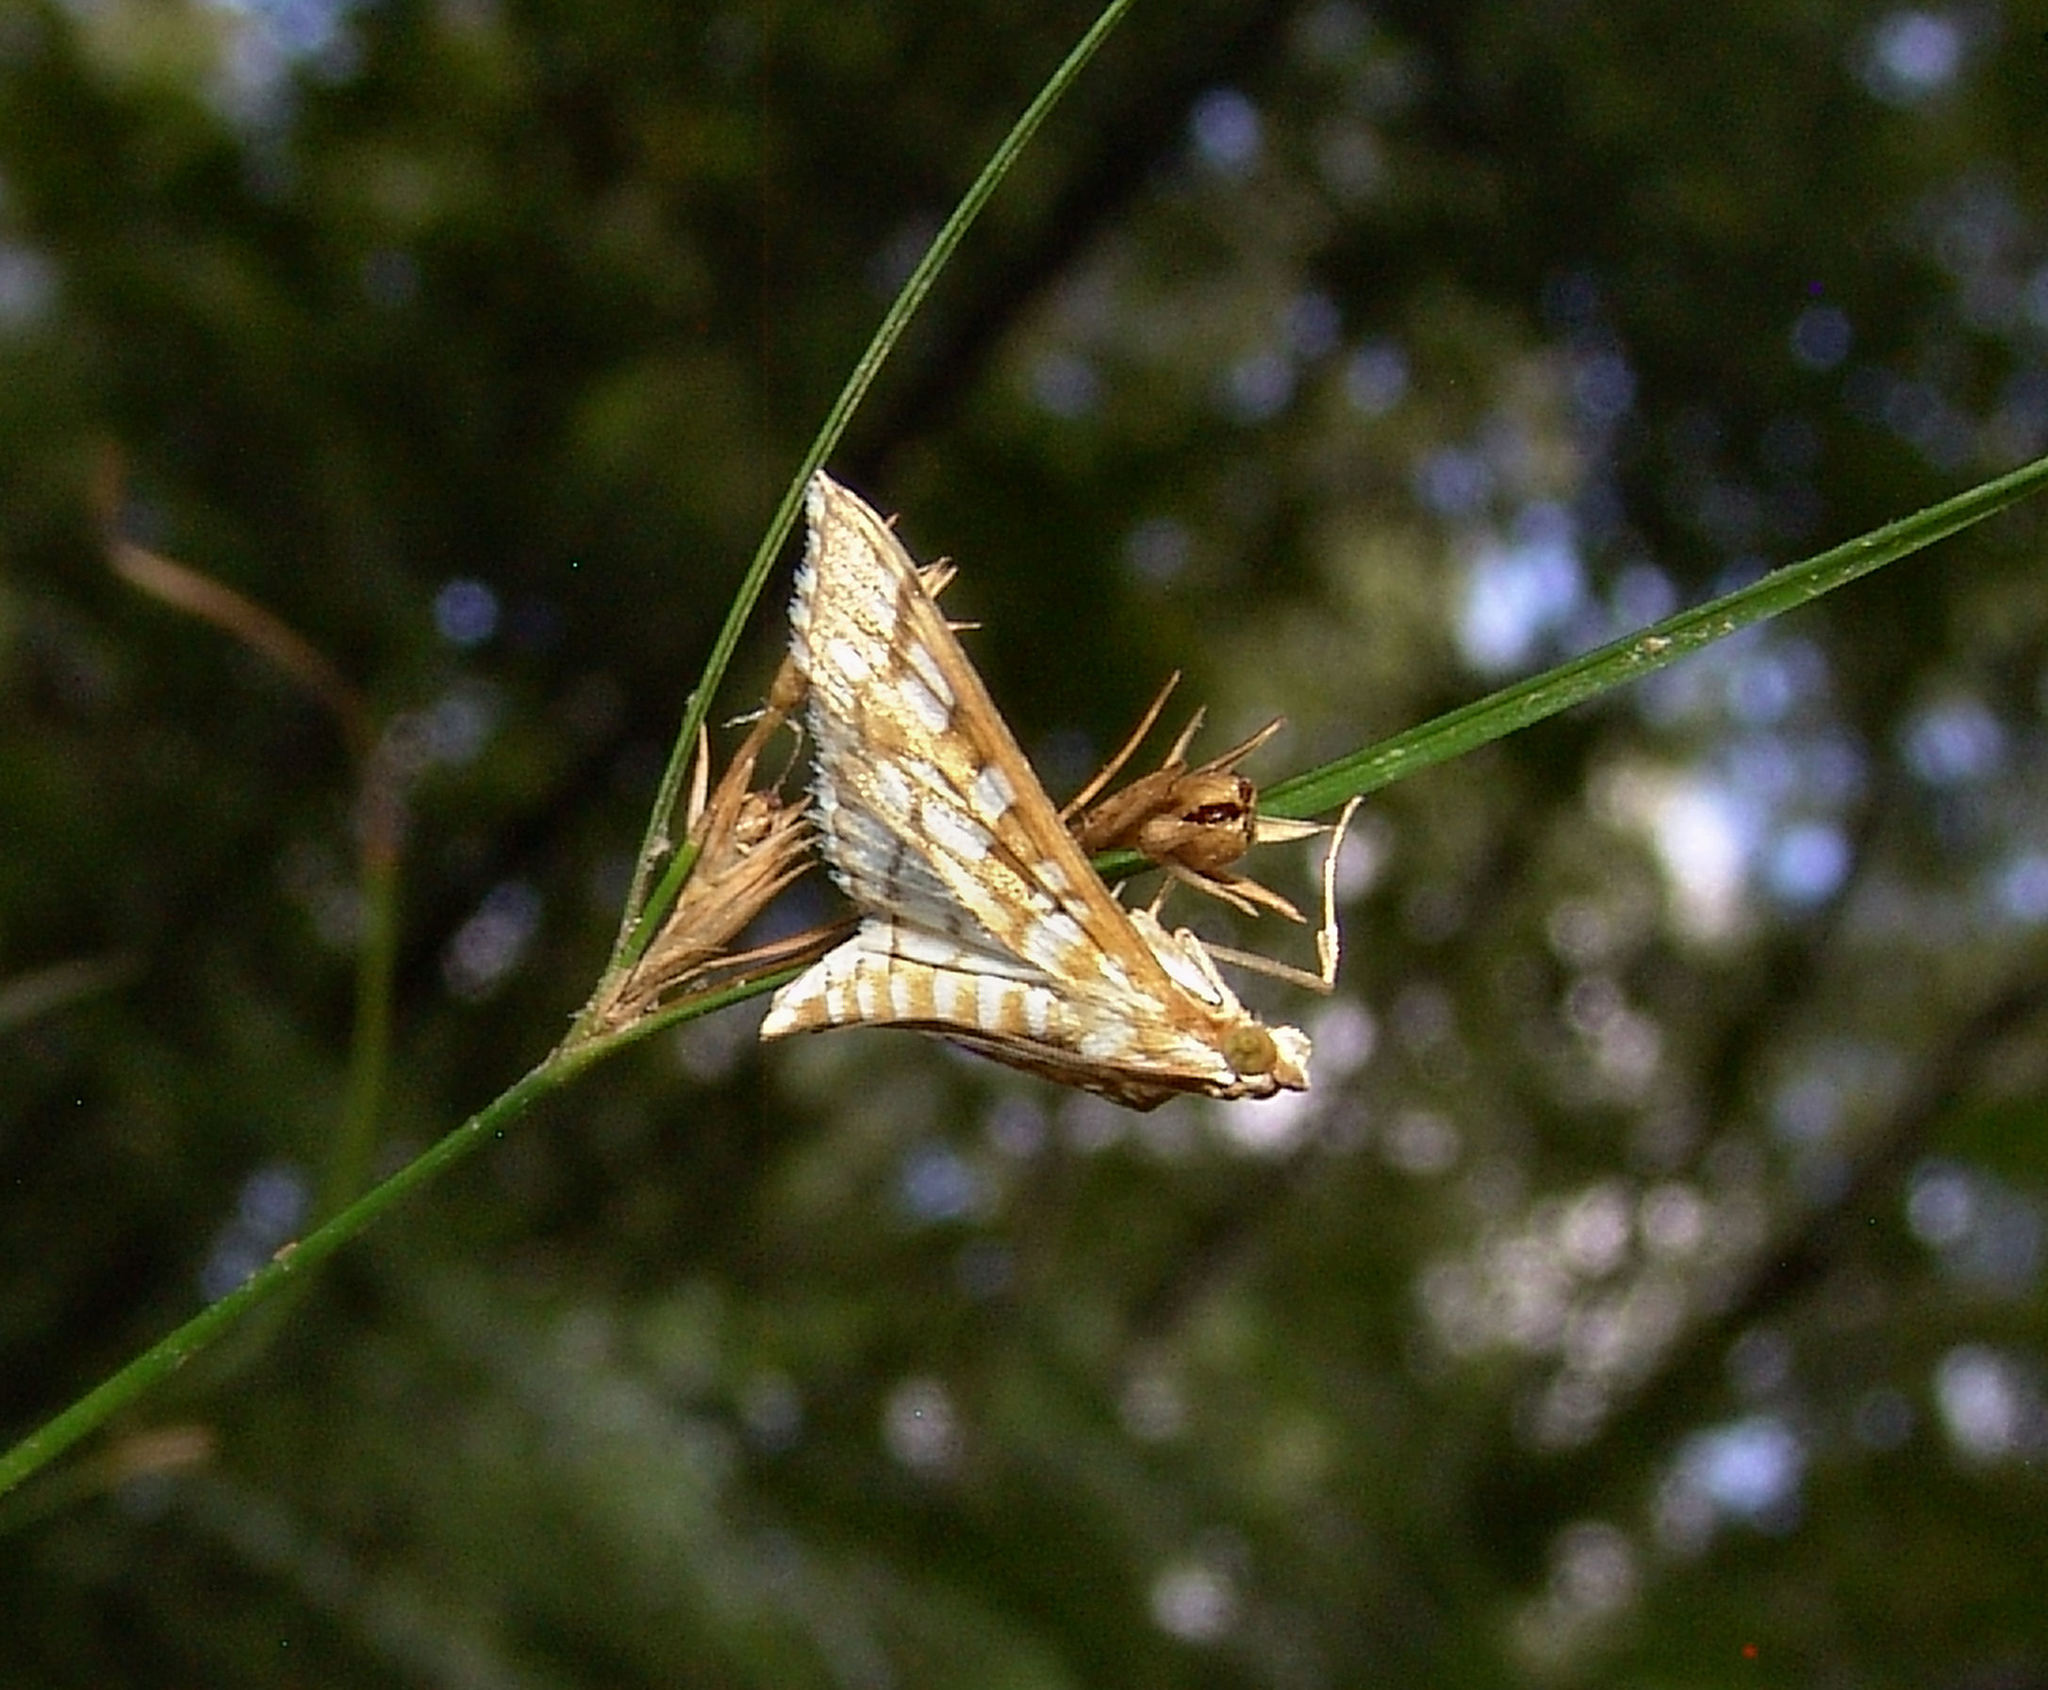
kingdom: Animalia
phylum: Arthropoda
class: Insecta
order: Lepidoptera
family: Crambidae
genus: Epipagis
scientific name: Epipagis fenestralis
